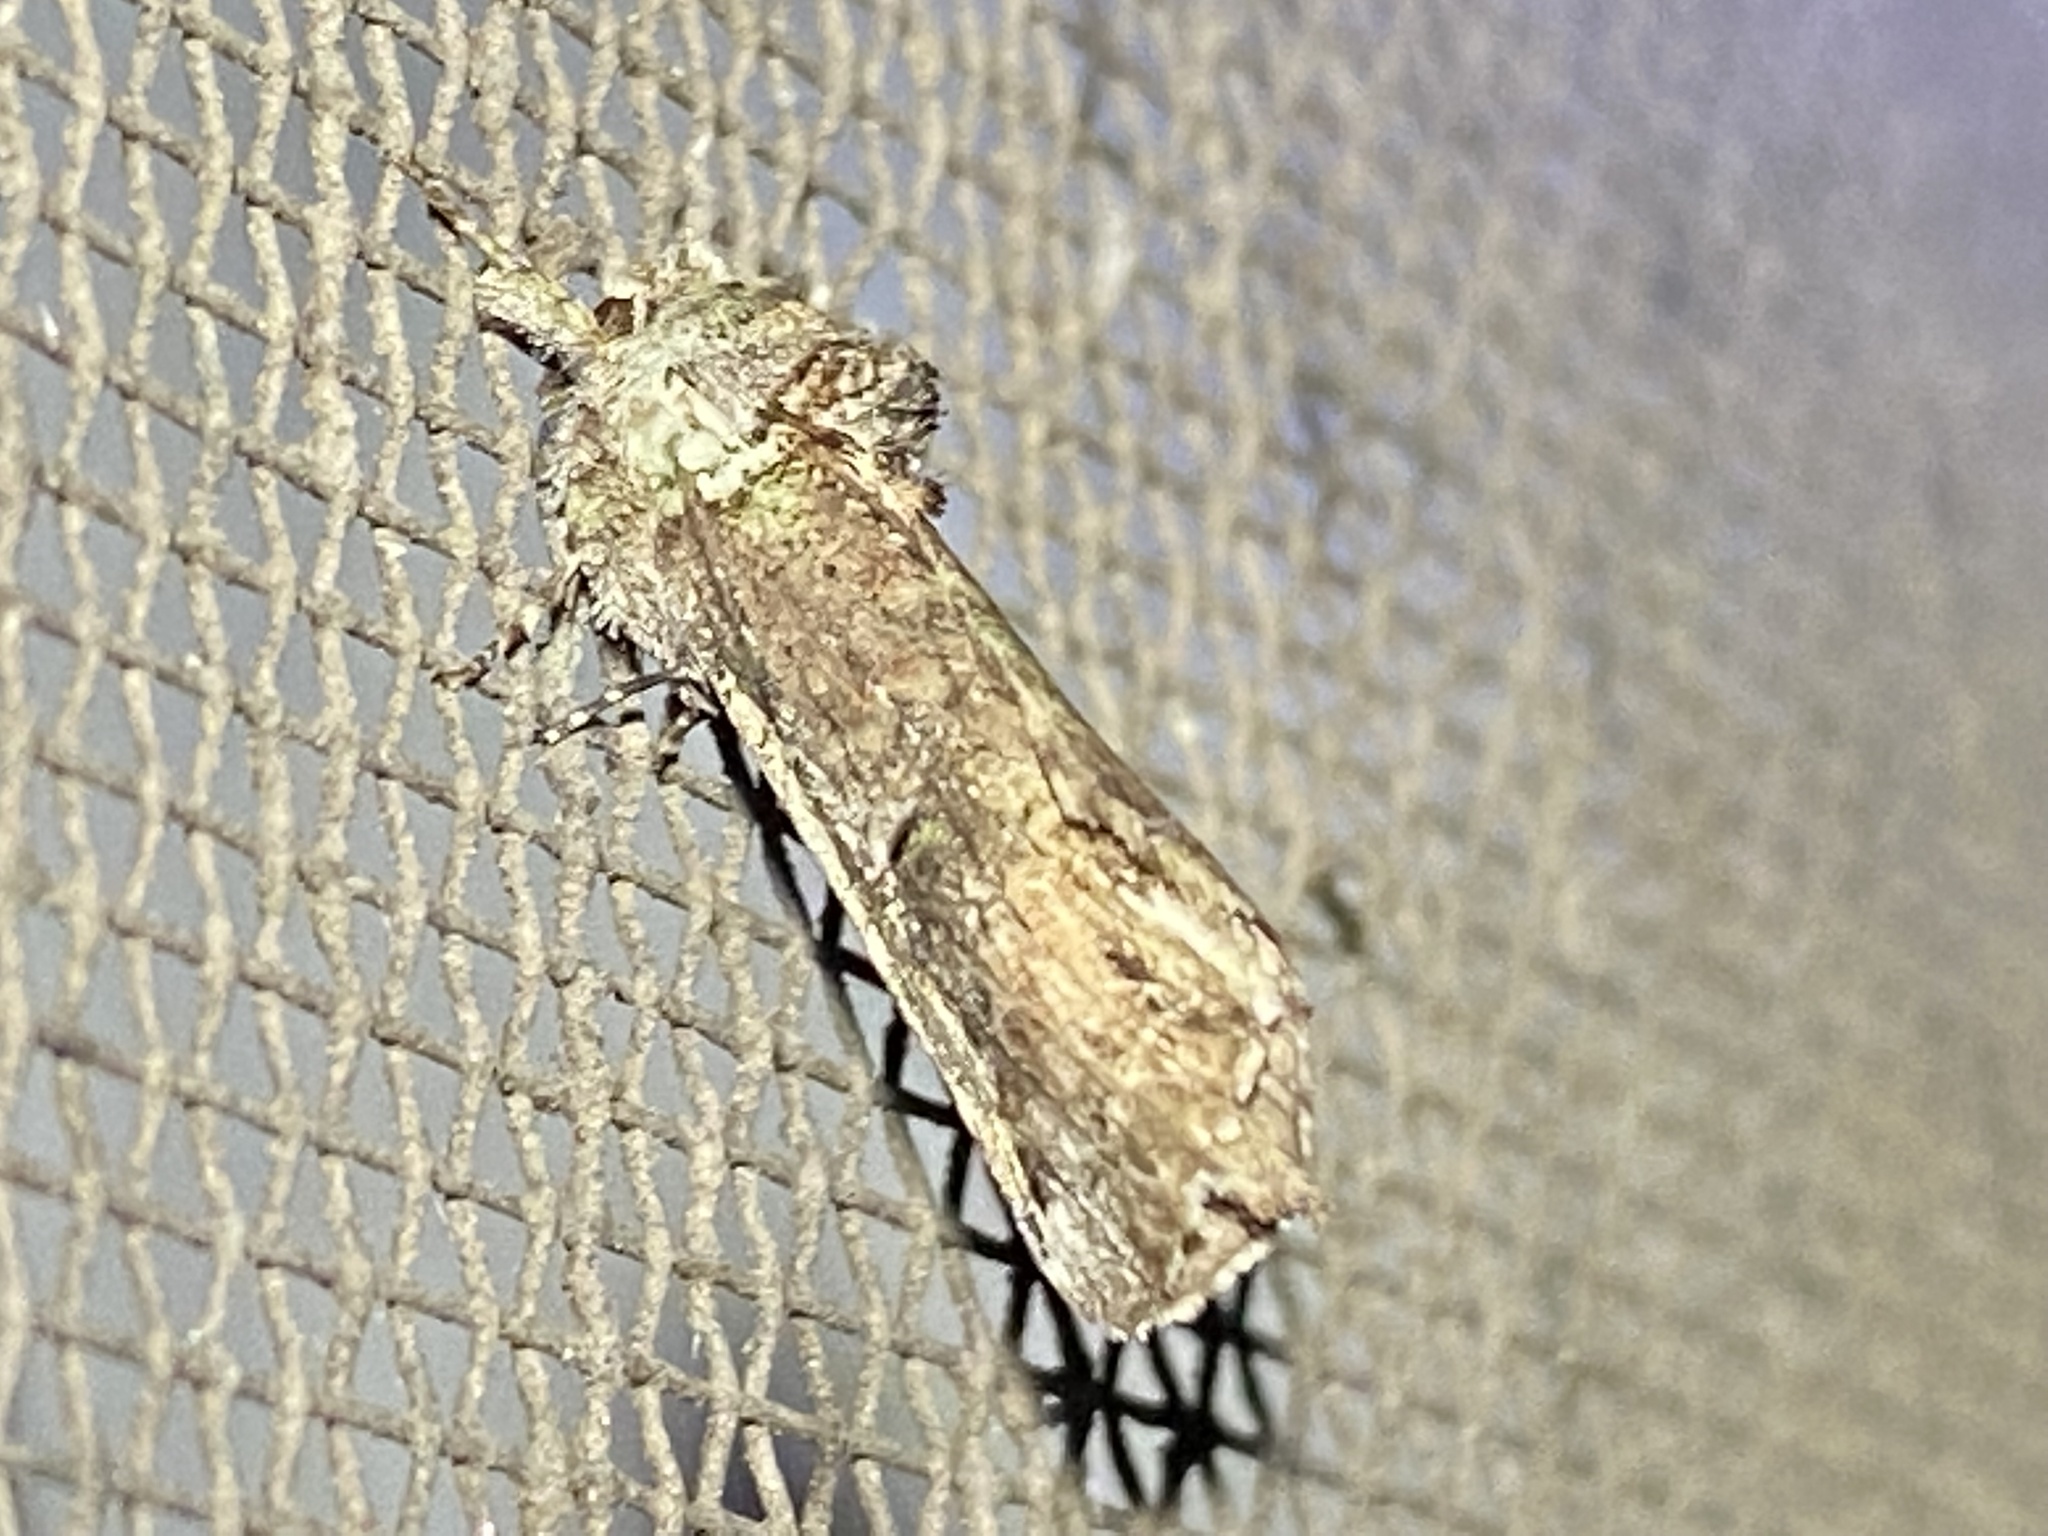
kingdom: Animalia
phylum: Arthropoda
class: Insecta
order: Lepidoptera
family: Notodontidae
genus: Schizura
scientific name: Schizura
